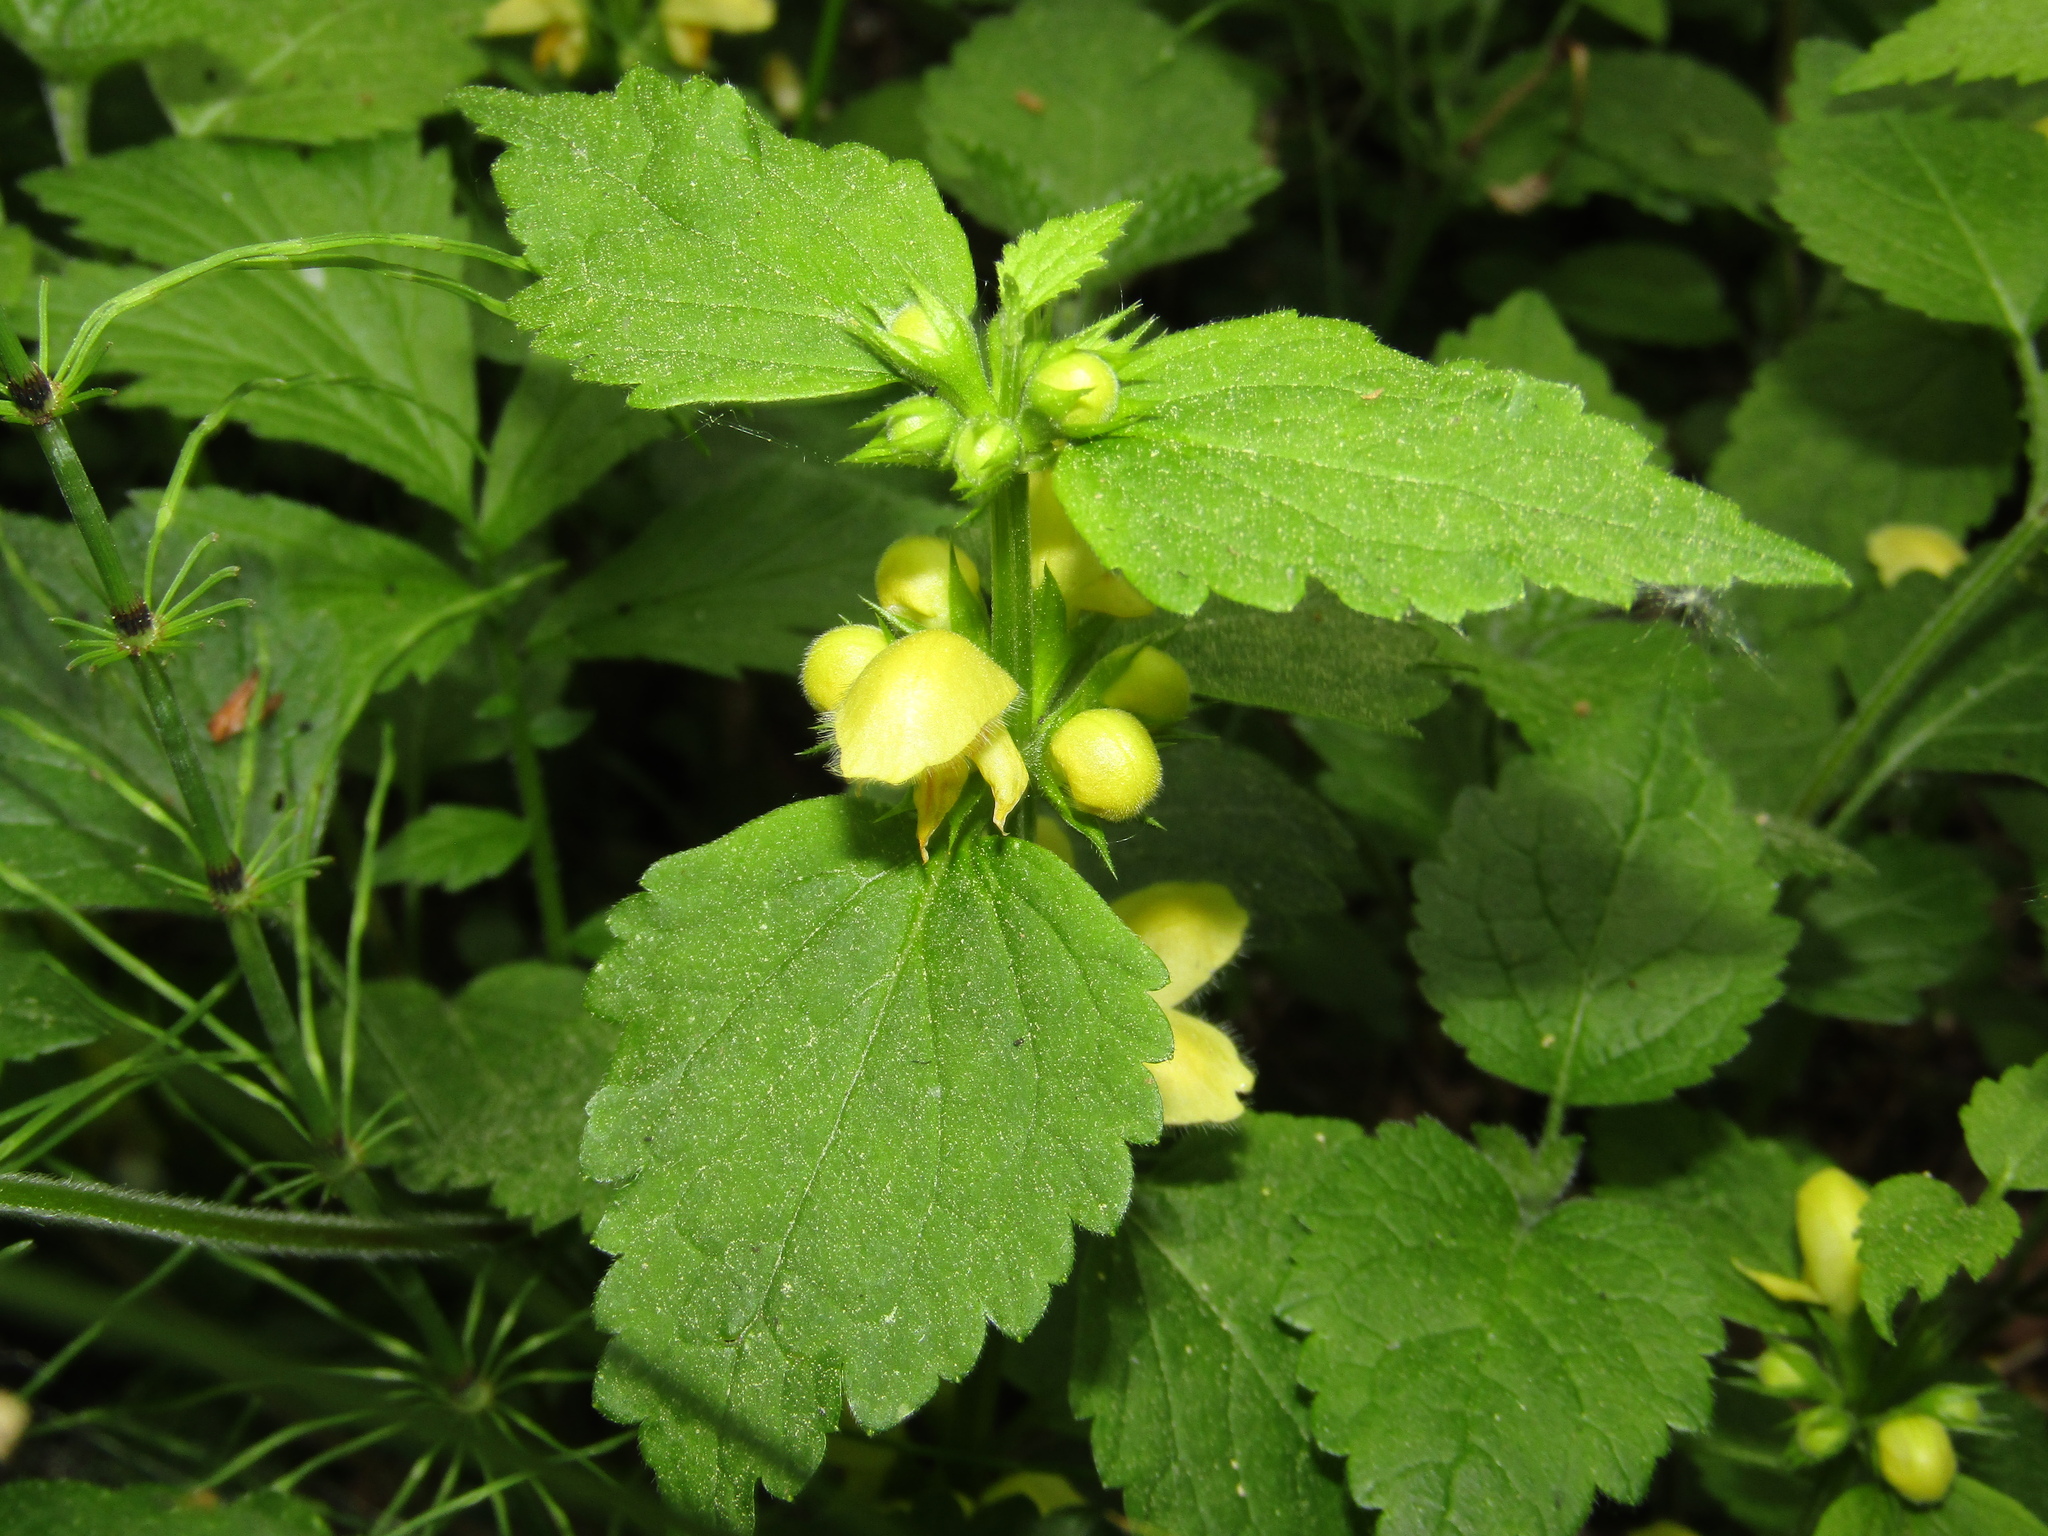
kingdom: Plantae
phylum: Tracheophyta
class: Magnoliopsida
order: Lamiales
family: Lamiaceae
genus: Lamium
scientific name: Lamium galeobdolon
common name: Yellow archangel
